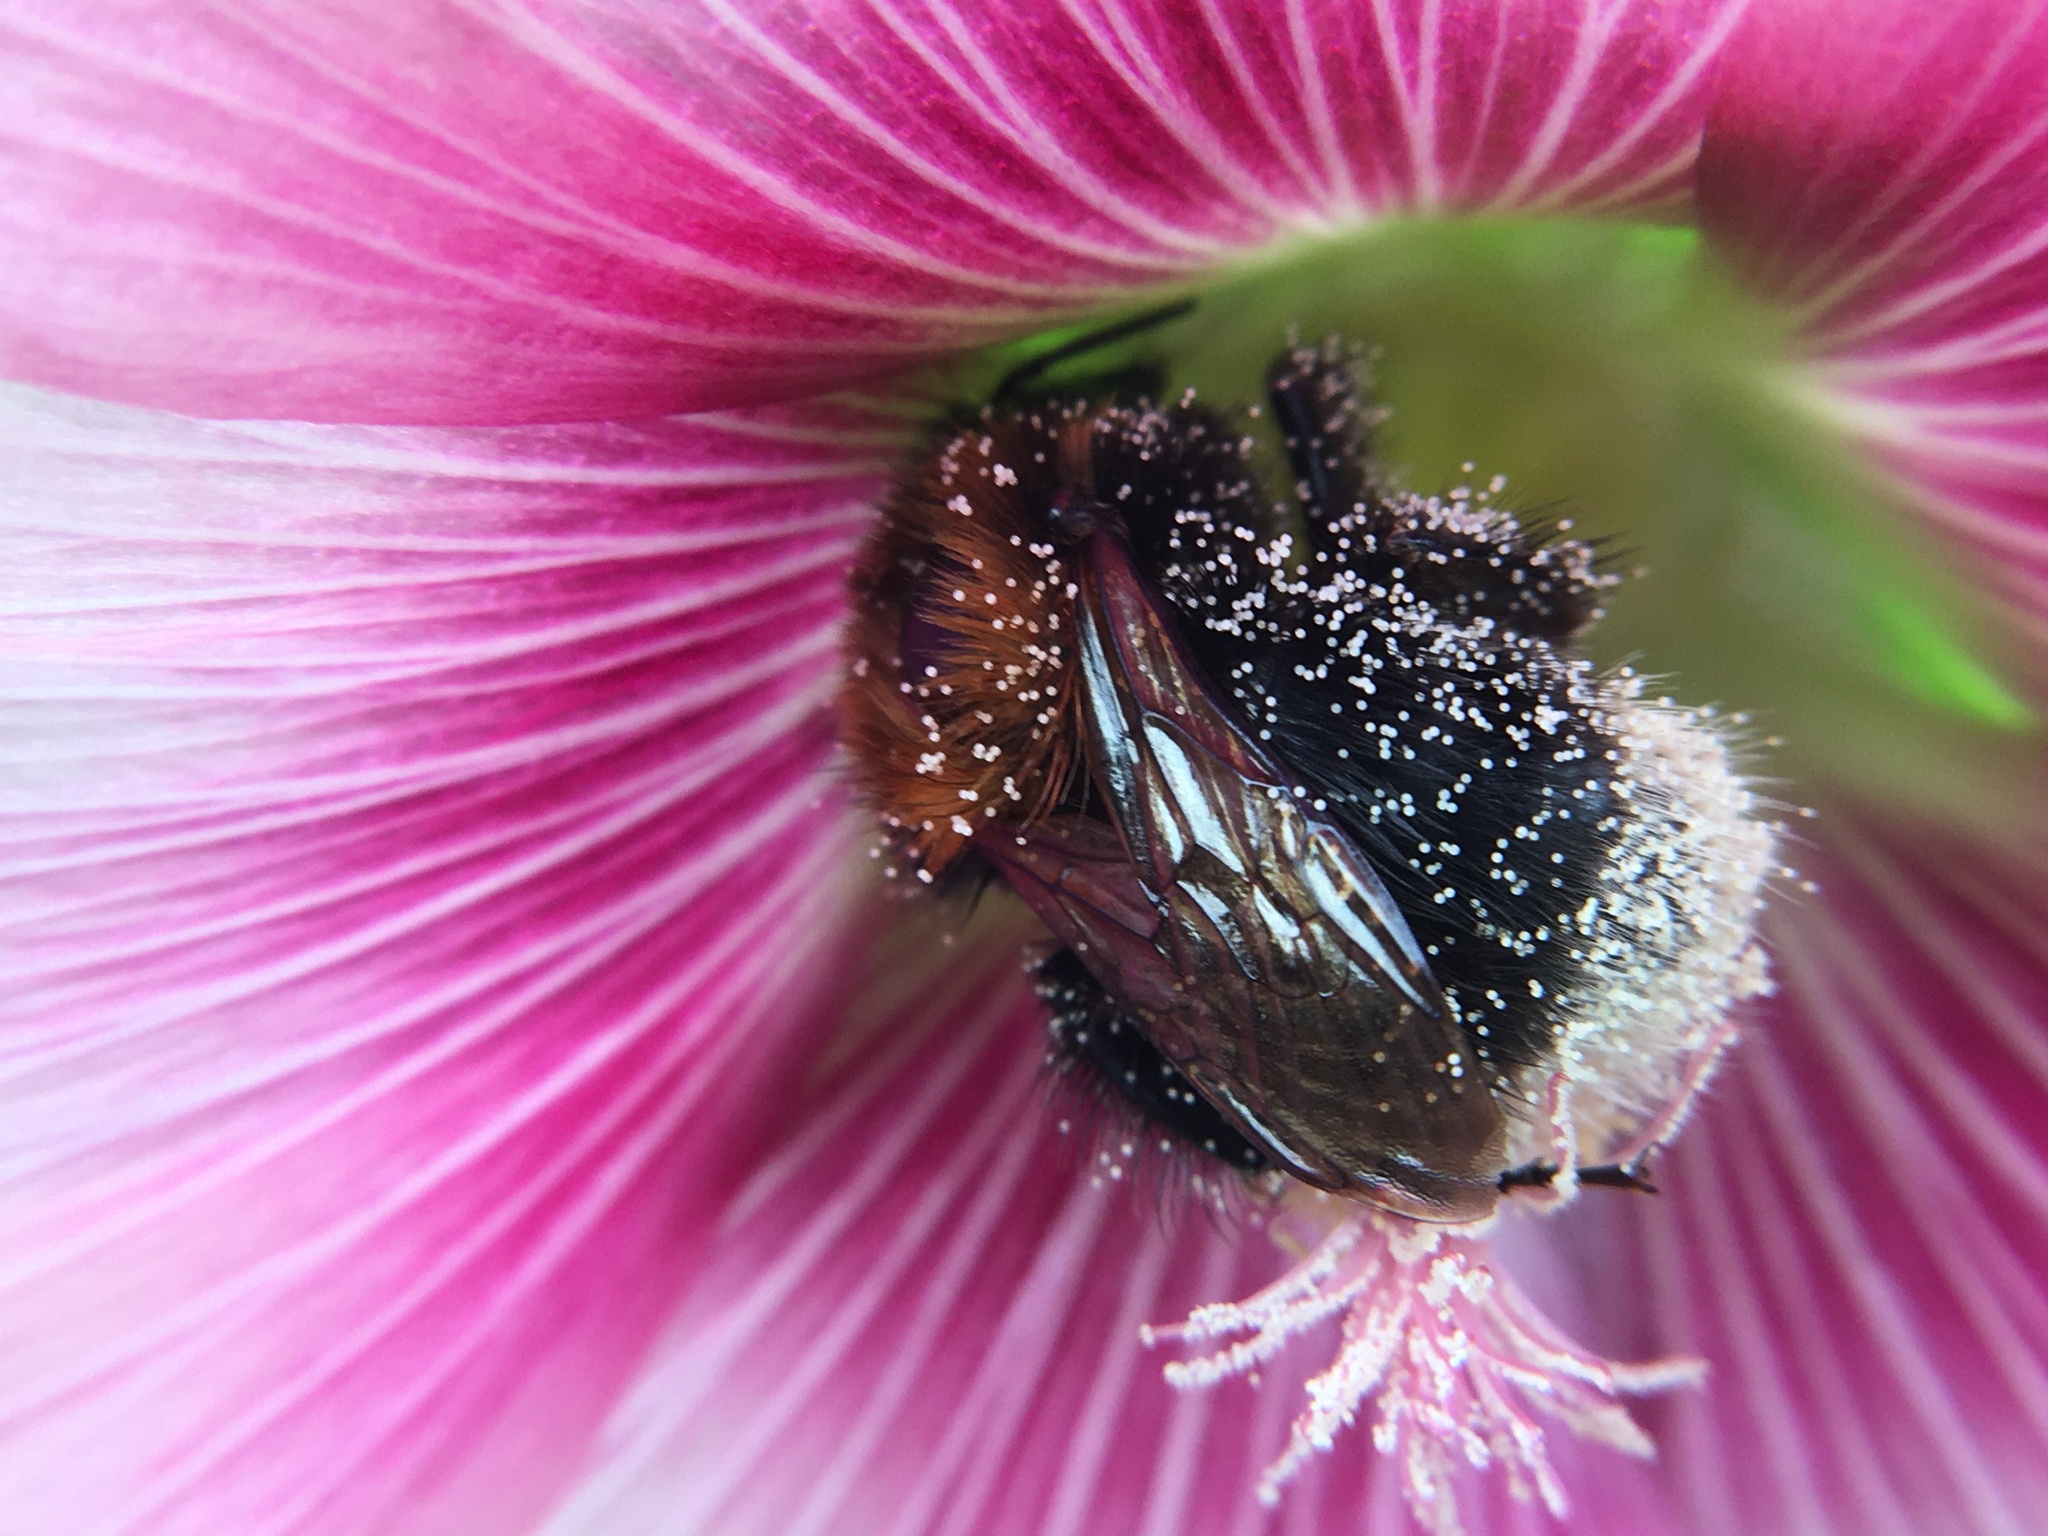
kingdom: Animalia
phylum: Arthropoda
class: Insecta
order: Hymenoptera
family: Apidae
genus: Bombus
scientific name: Bombus hypnorum
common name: New garden bumblebee
